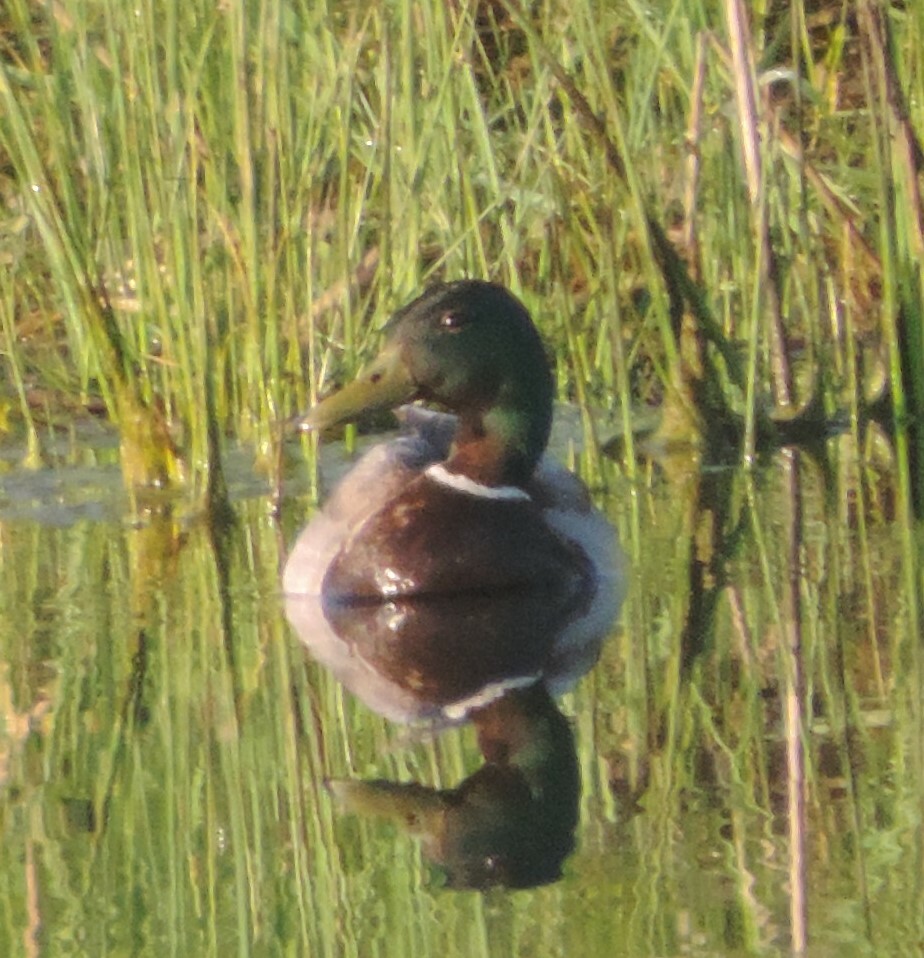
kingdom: Animalia
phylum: Chordata
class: Aves
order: Anseriformes
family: Anatidae
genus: Anas
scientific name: Anas platyrhynchos
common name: Mallard
